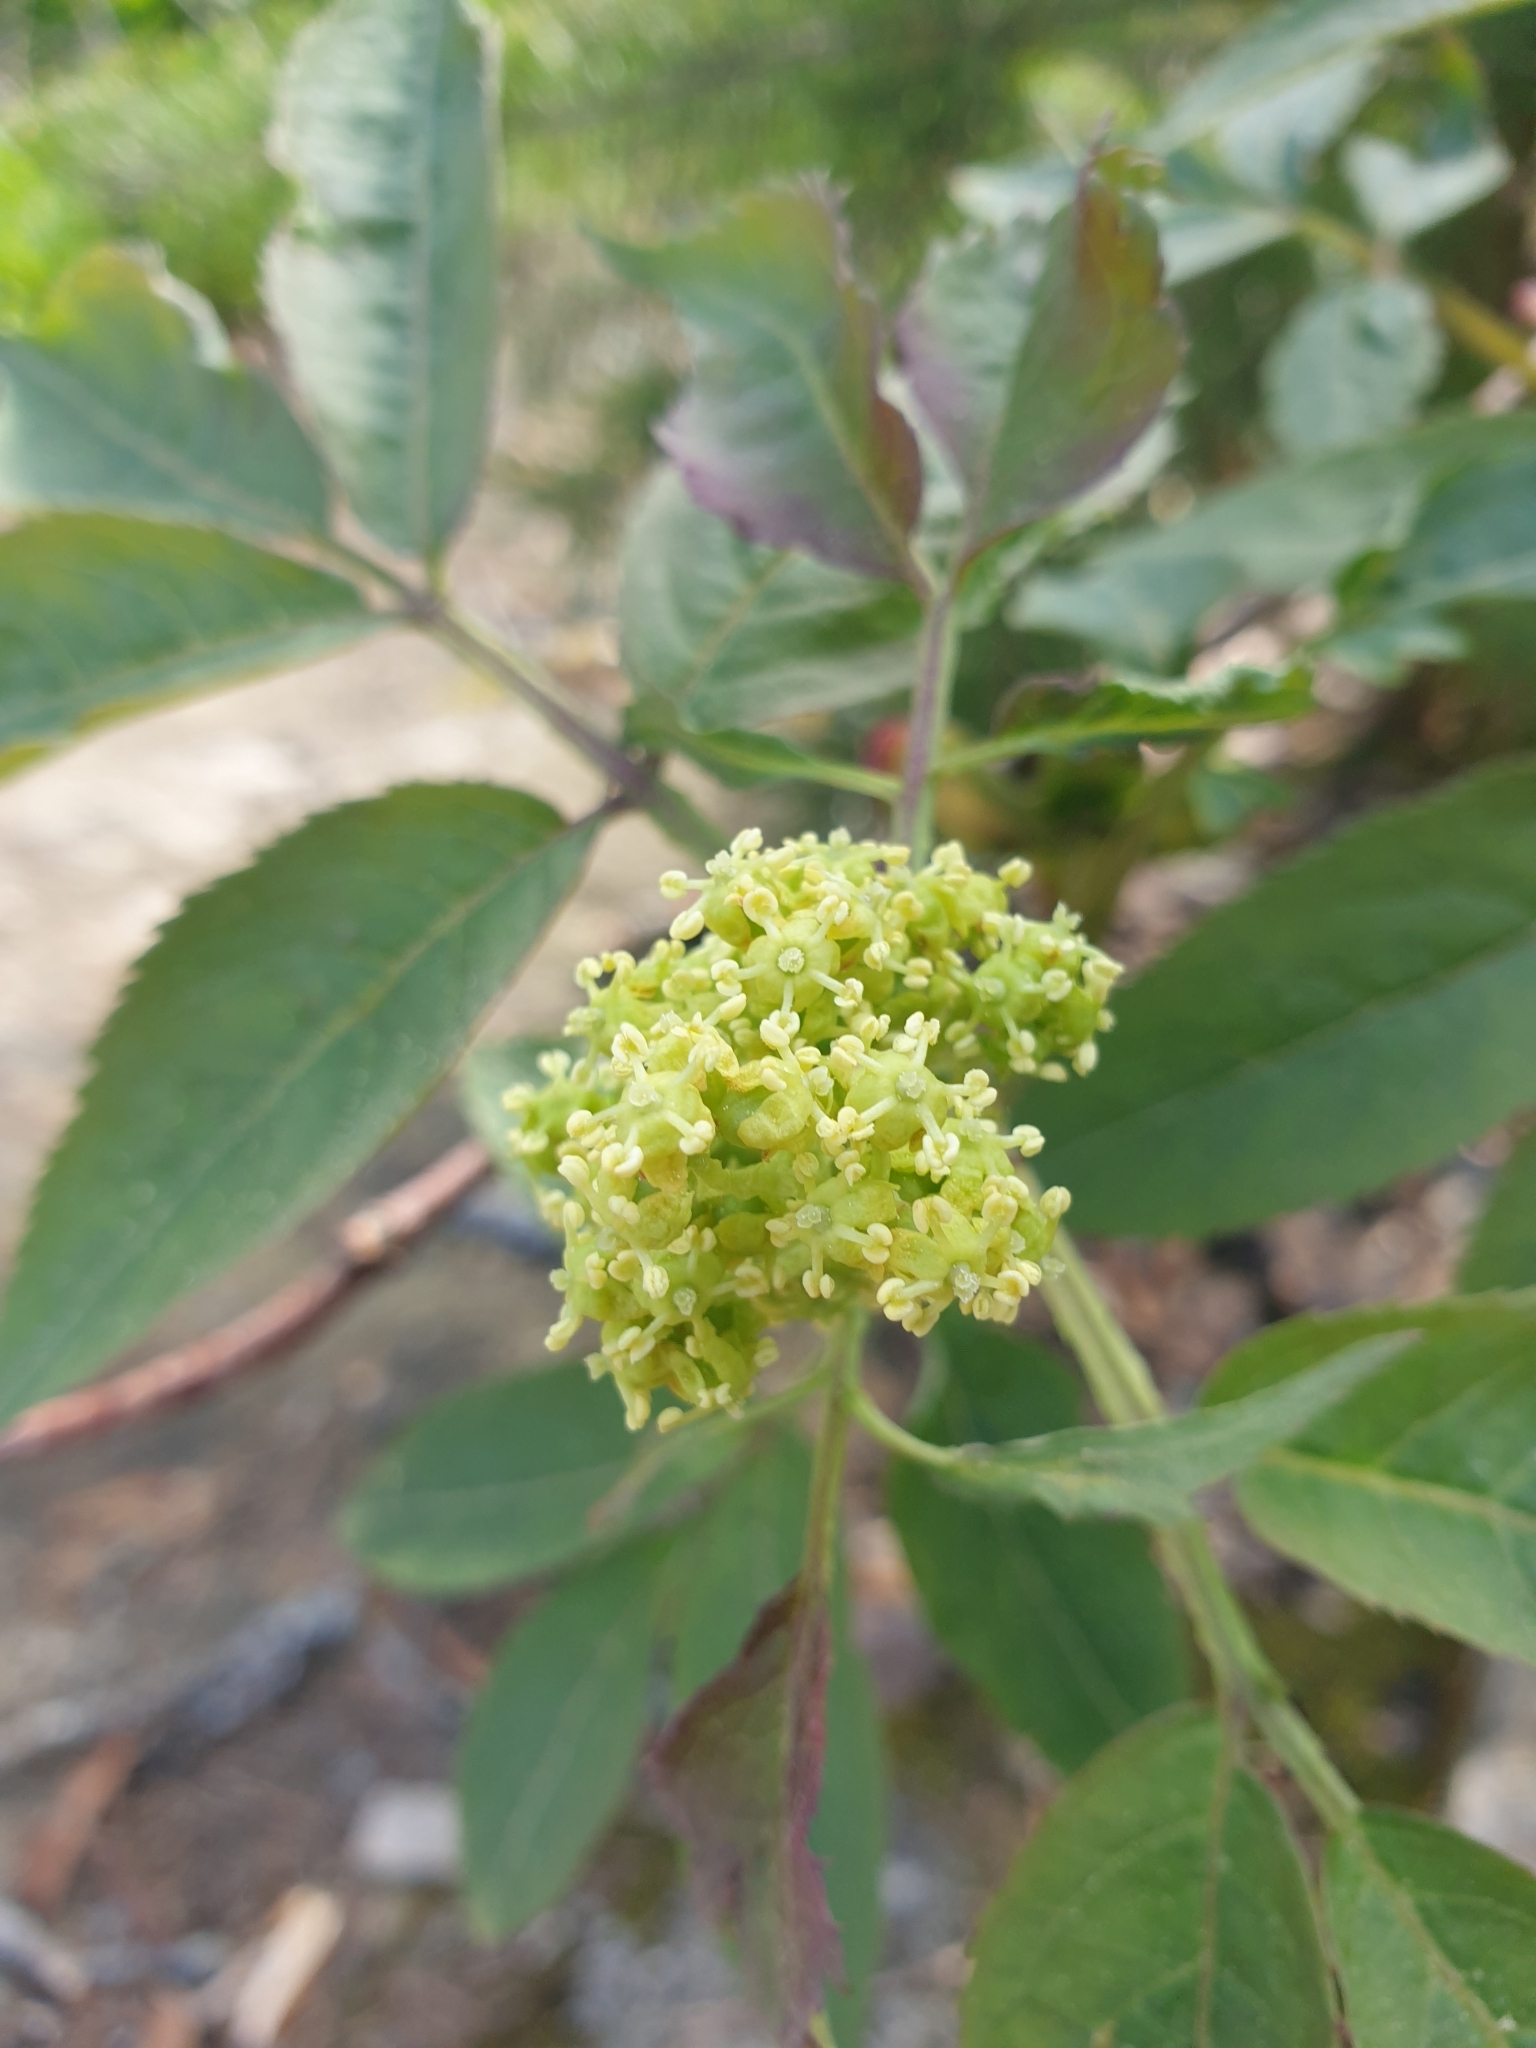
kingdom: Plantae
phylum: Tracheophyta
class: Magnoliopsida
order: Dipsacales
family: Viburnaceae
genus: Sambucus
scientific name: Sambucus racemosa
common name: Red-berried elder
